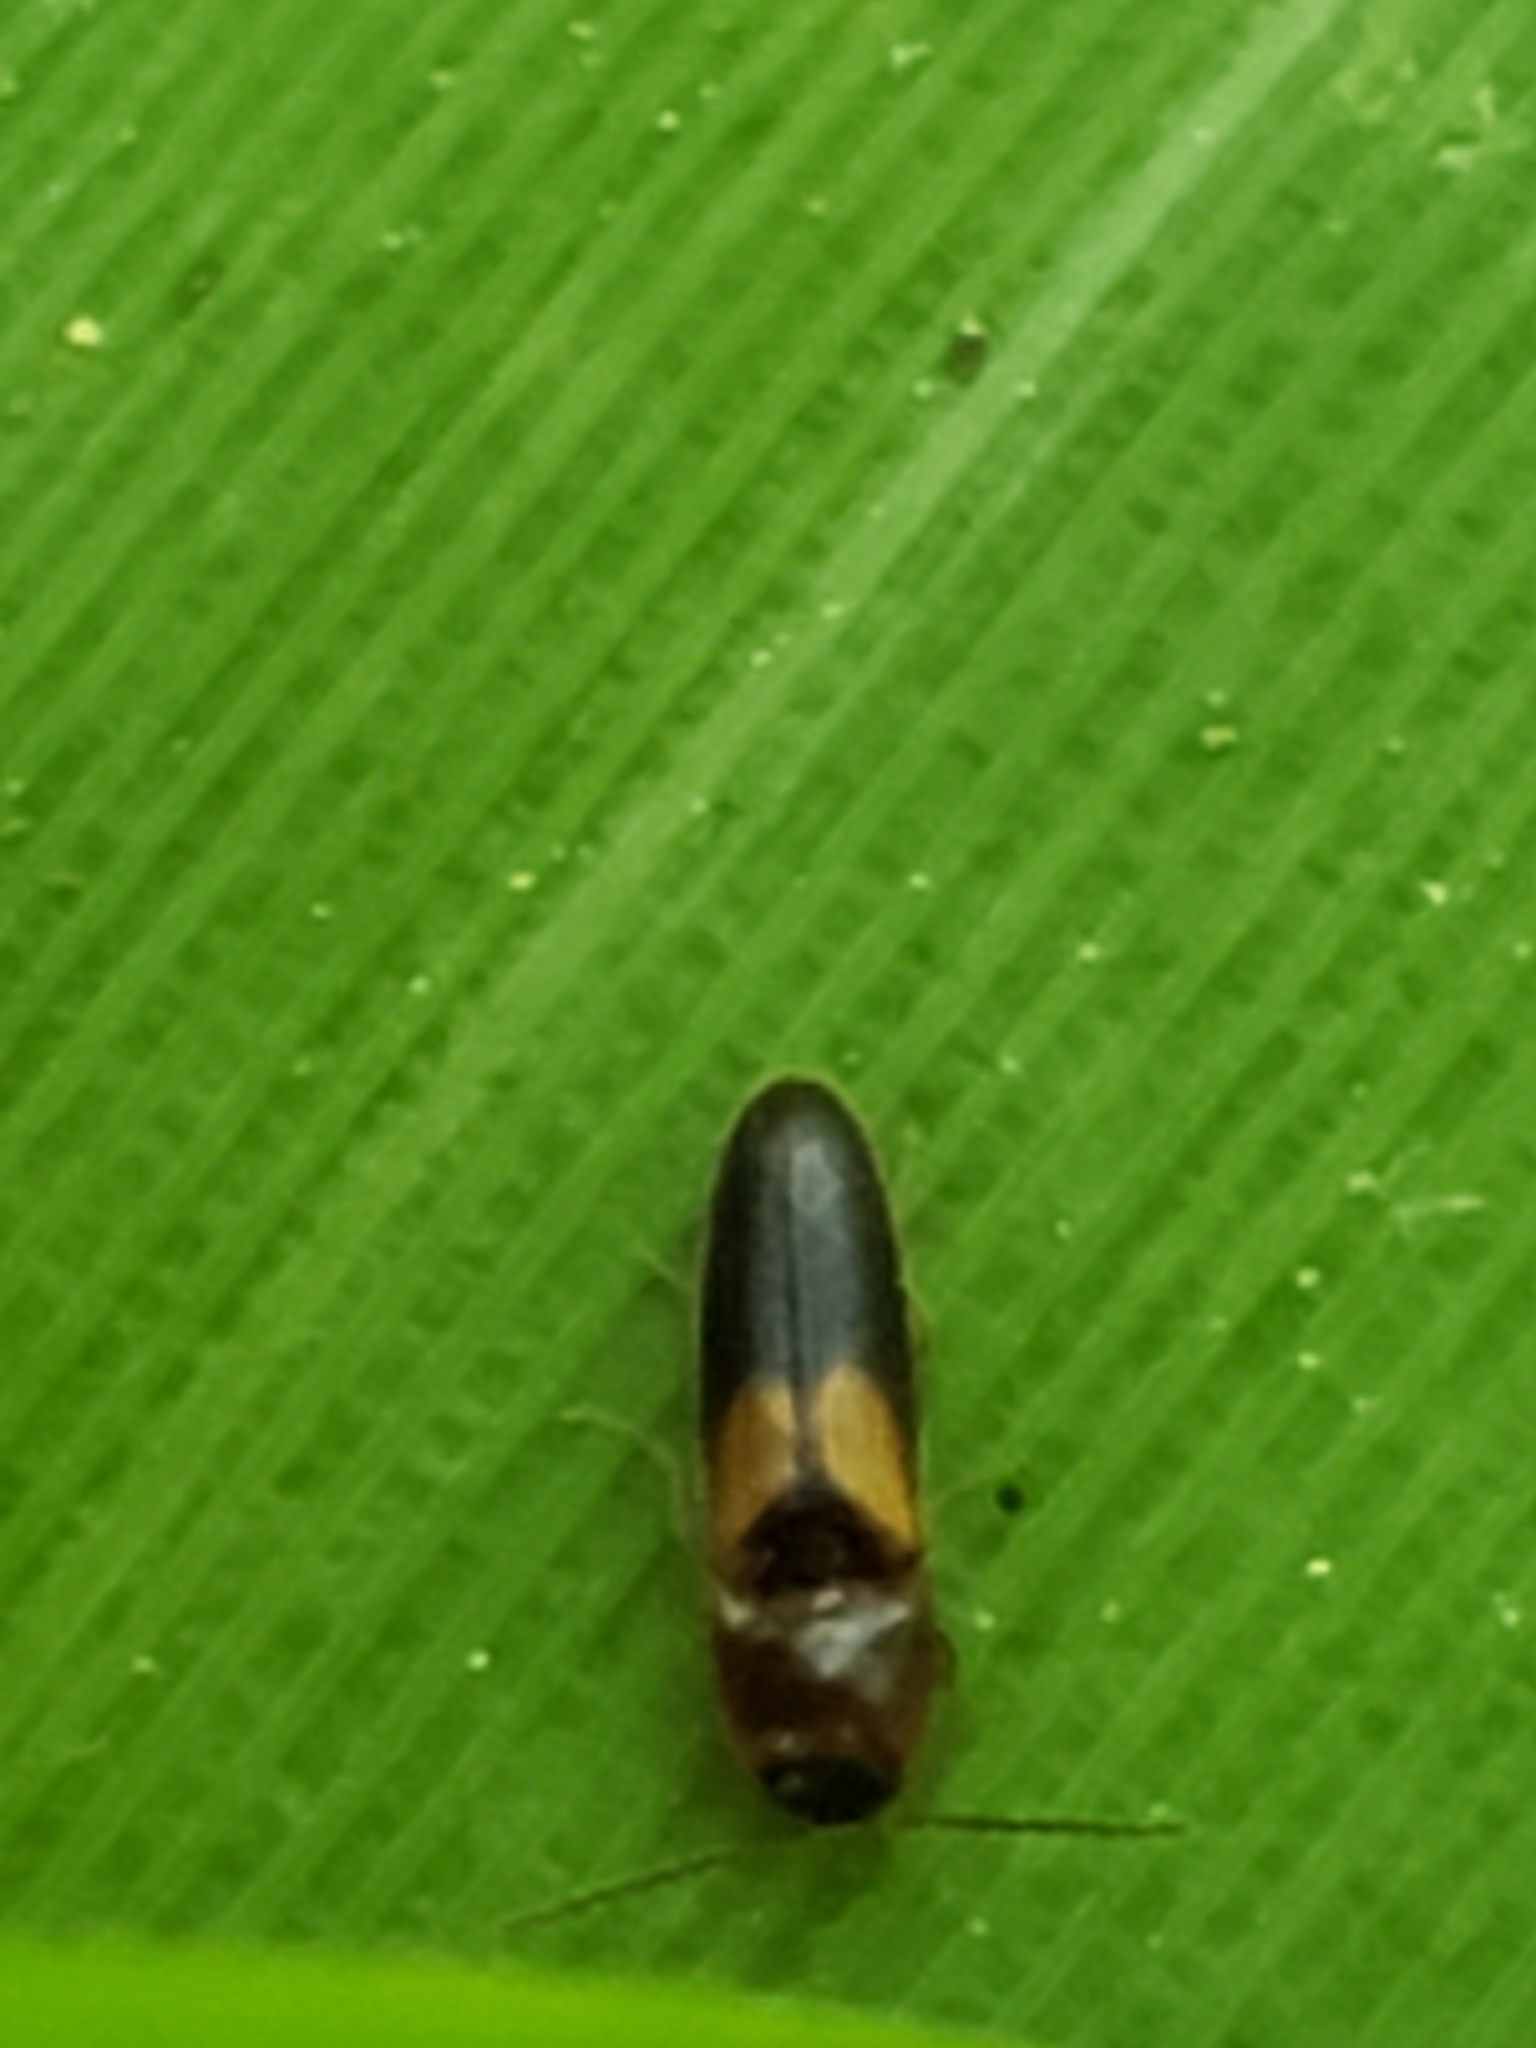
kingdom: Animalia
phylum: Arthropoda
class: Insecta
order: Coleoptera
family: Coccinellidae
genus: Harmonia
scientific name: Harmonia axyridis
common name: Harlequin ladybird
